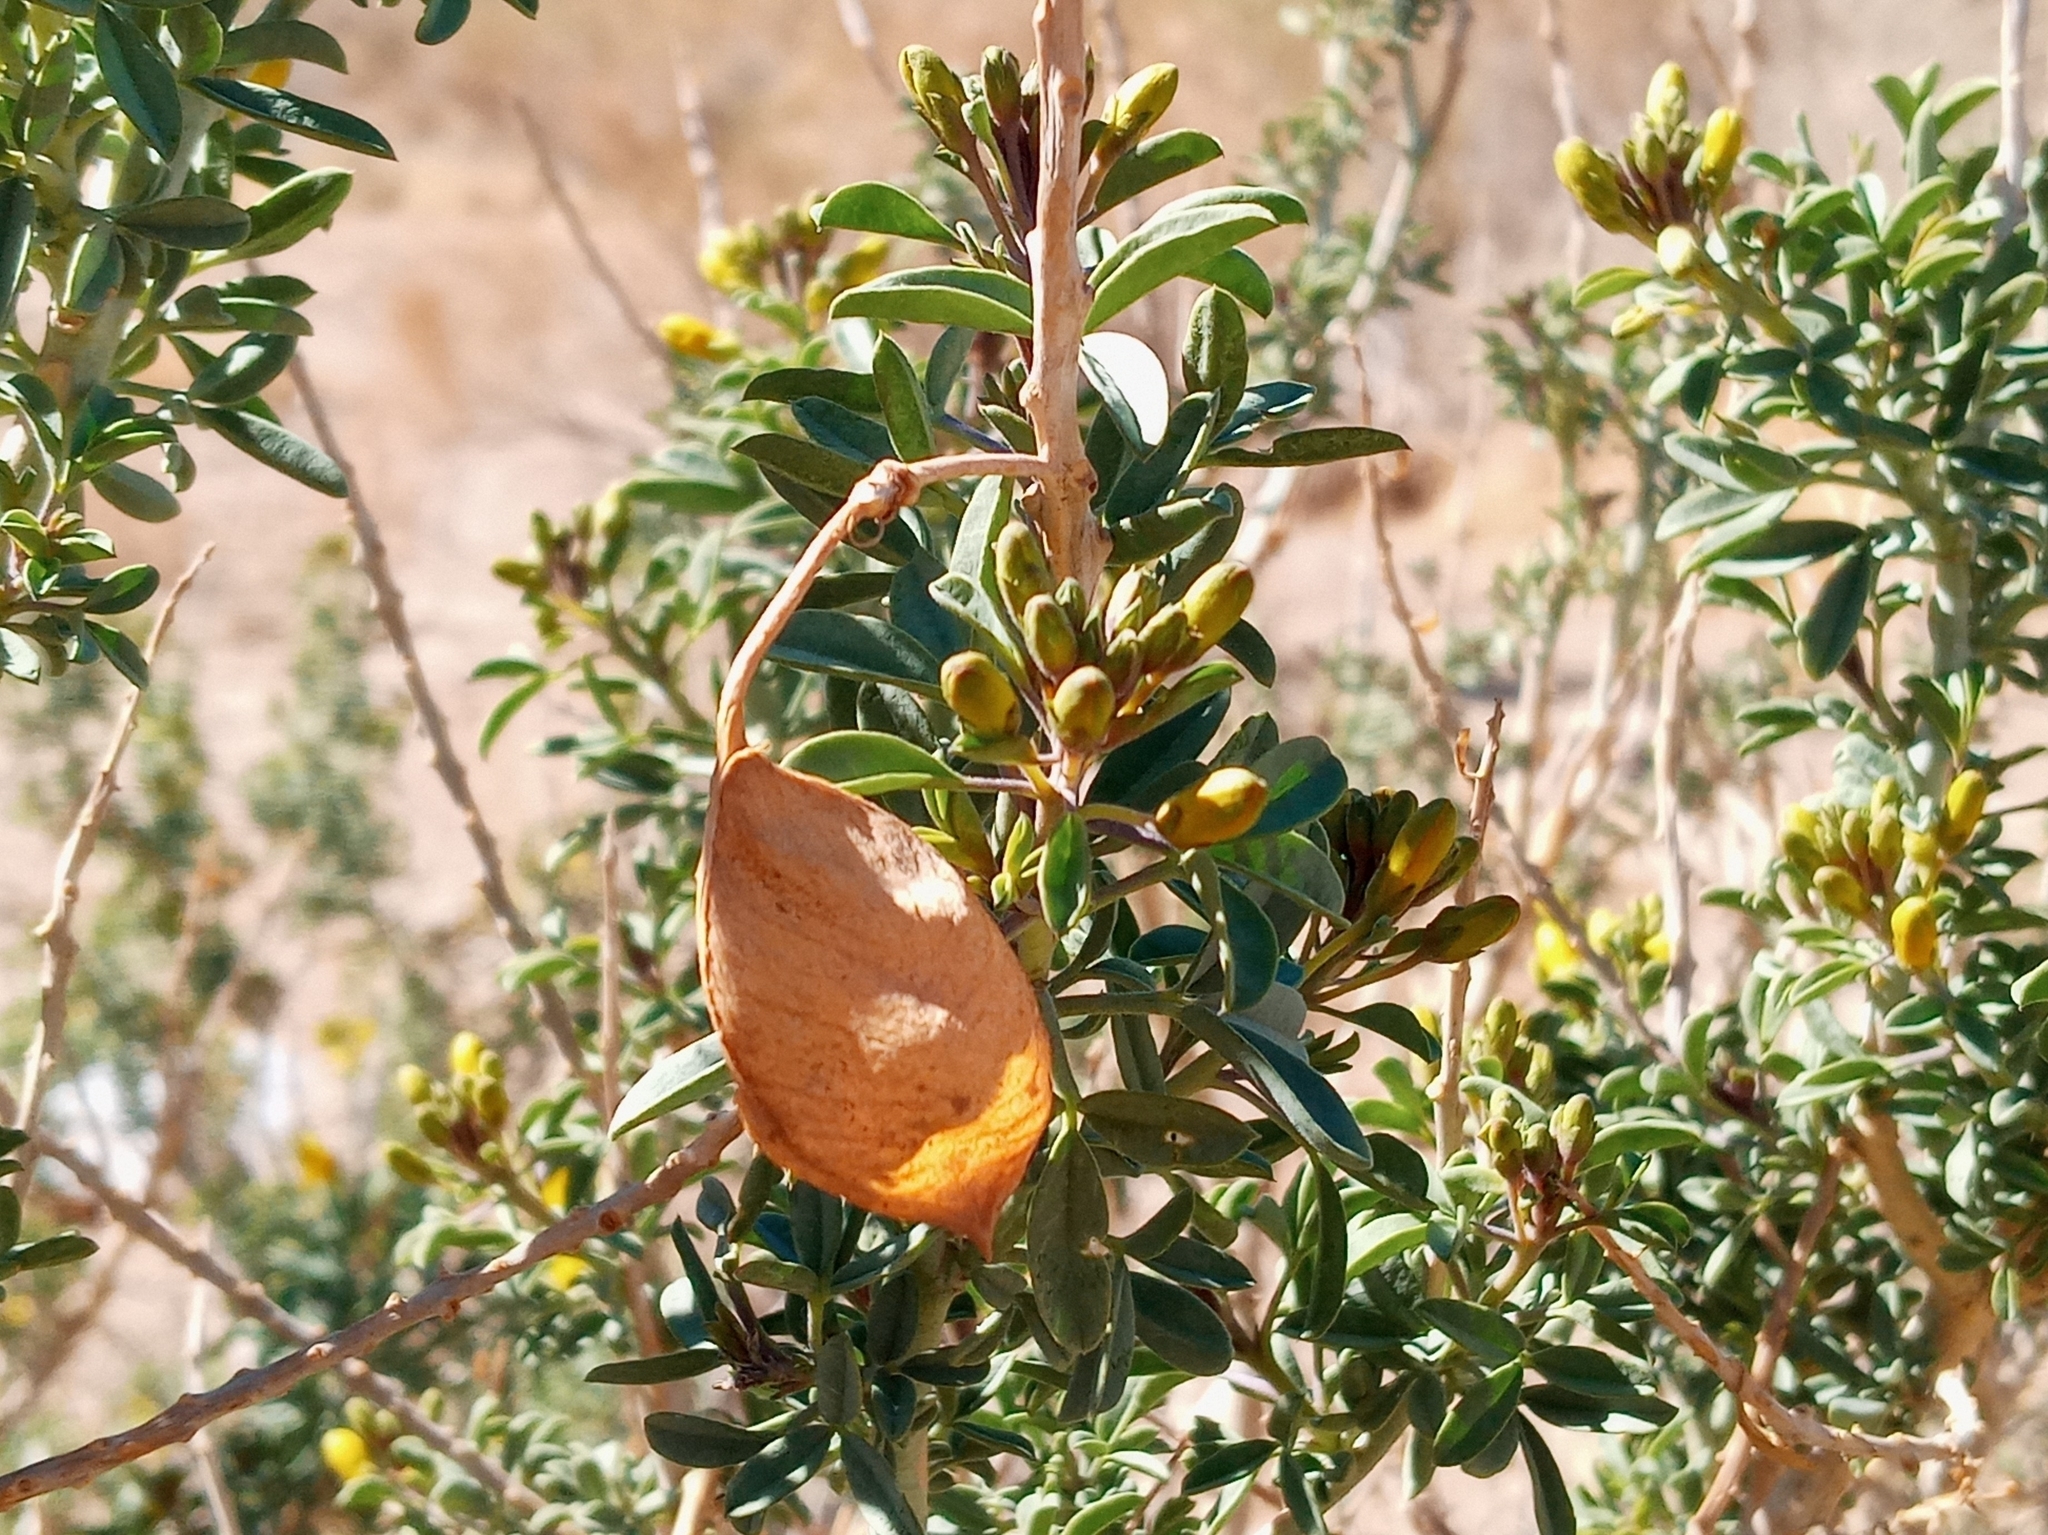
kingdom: Plantae
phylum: Tracheophyta
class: Magnoliopsida
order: Brassicales
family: Cleomaceae
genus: Cleomella
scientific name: Cleomella arborea
